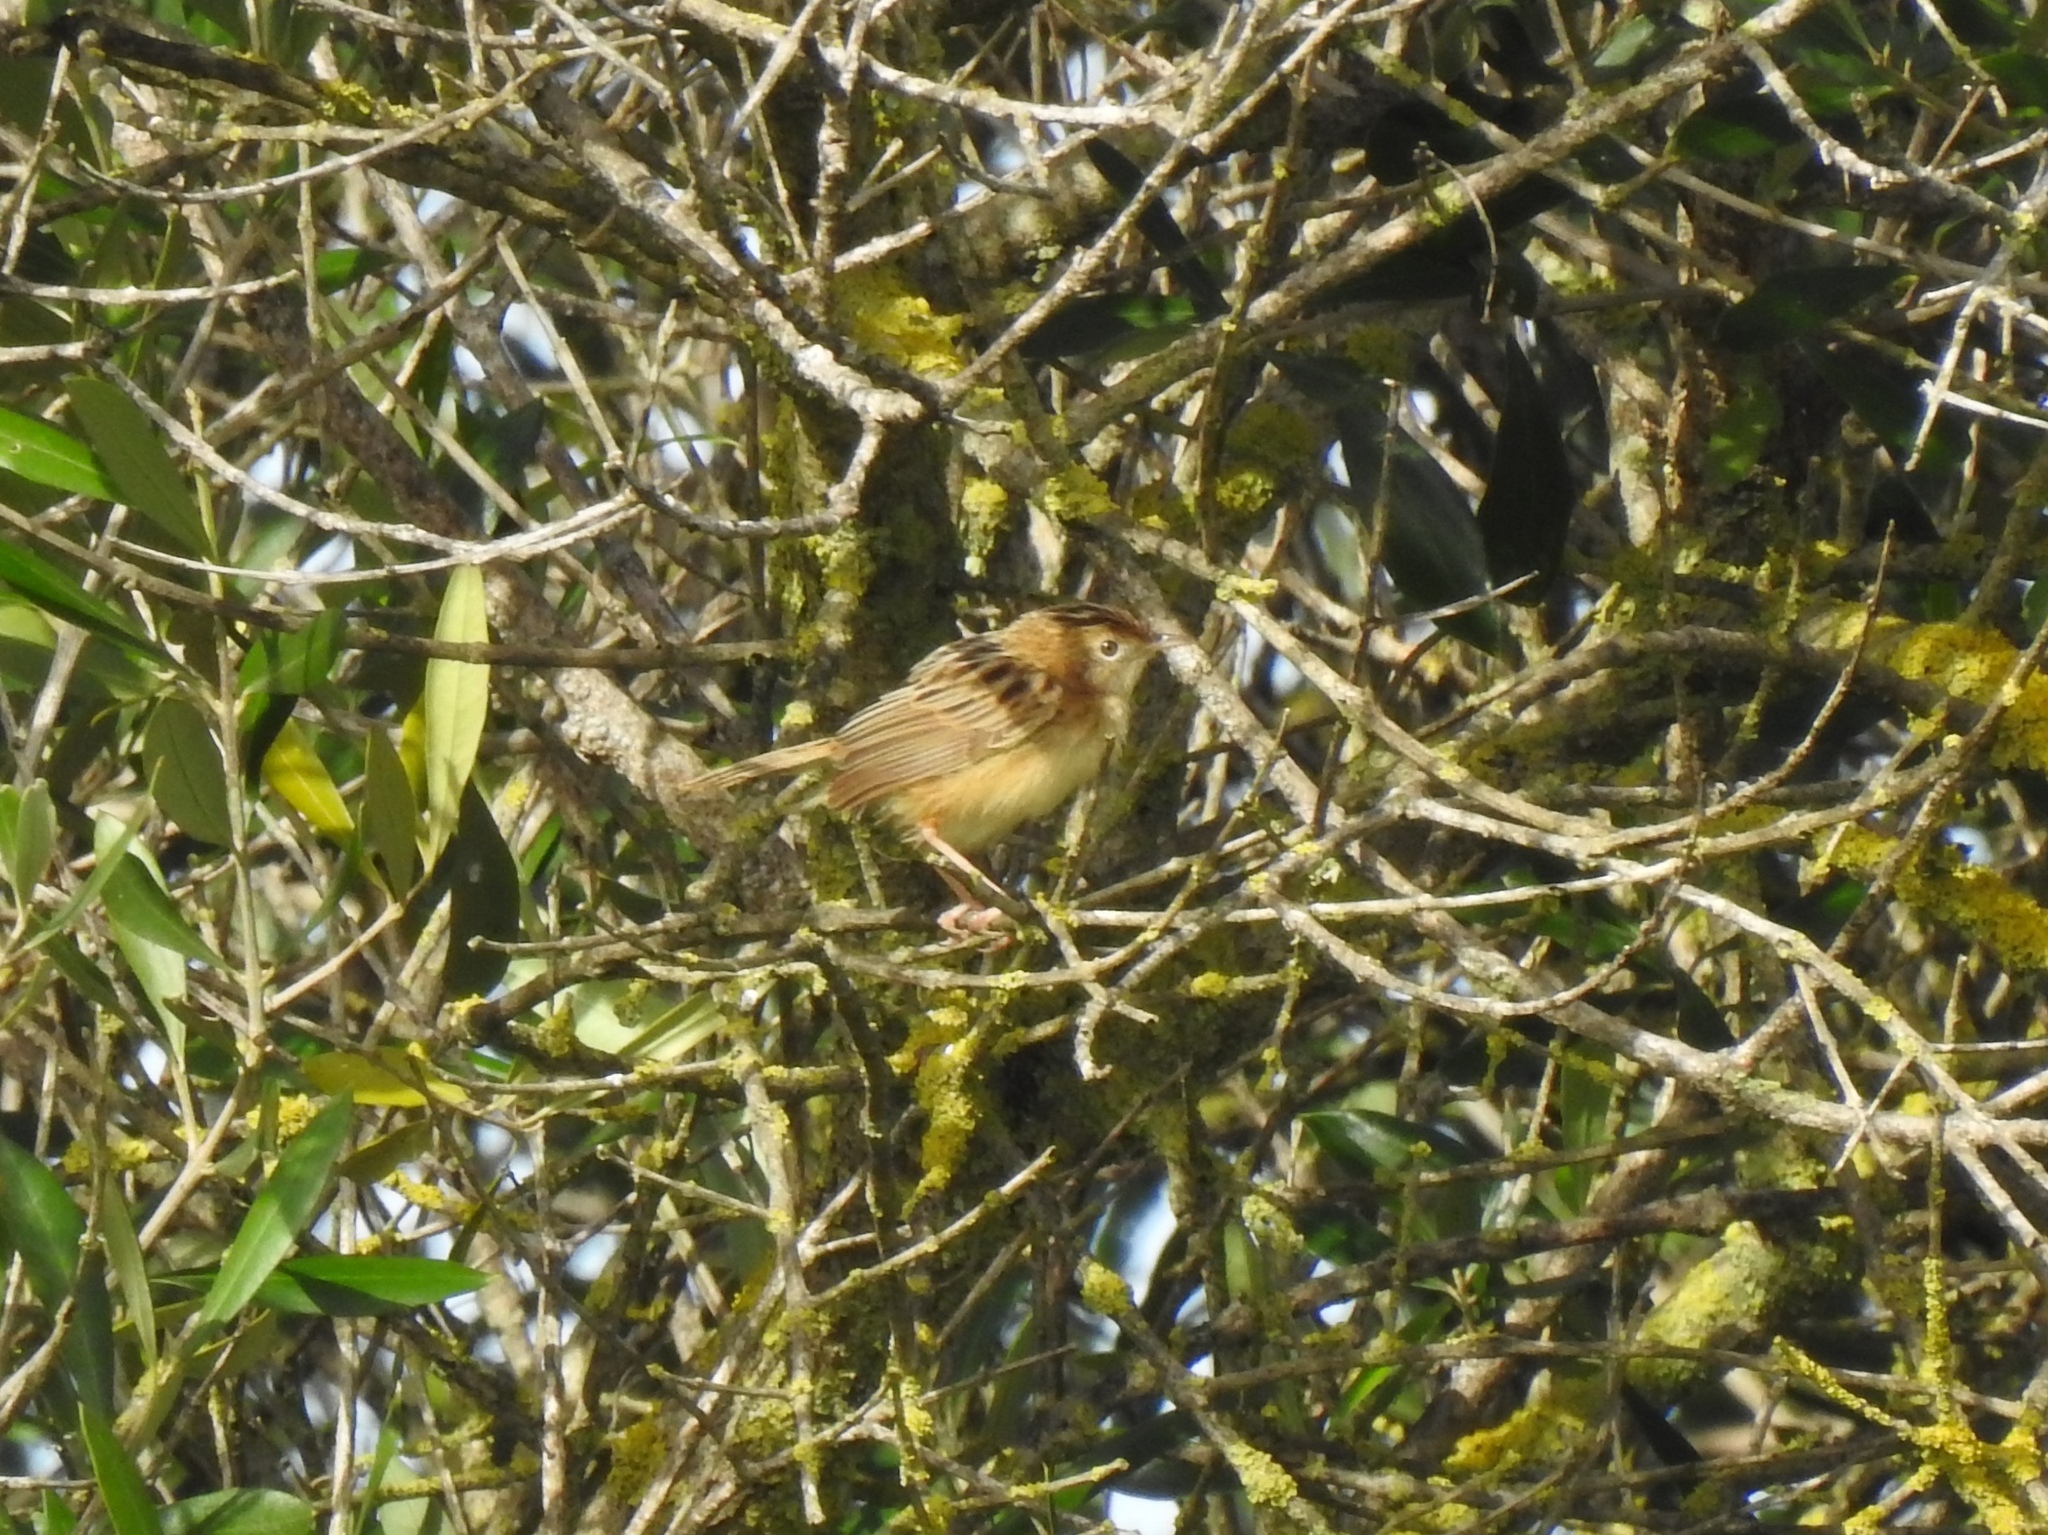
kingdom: Animalia
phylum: Chordata
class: Aves
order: Passeriformes
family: Cisticolidae
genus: Cisticola
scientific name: Cisticola juncidis
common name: Zitting cisticola
